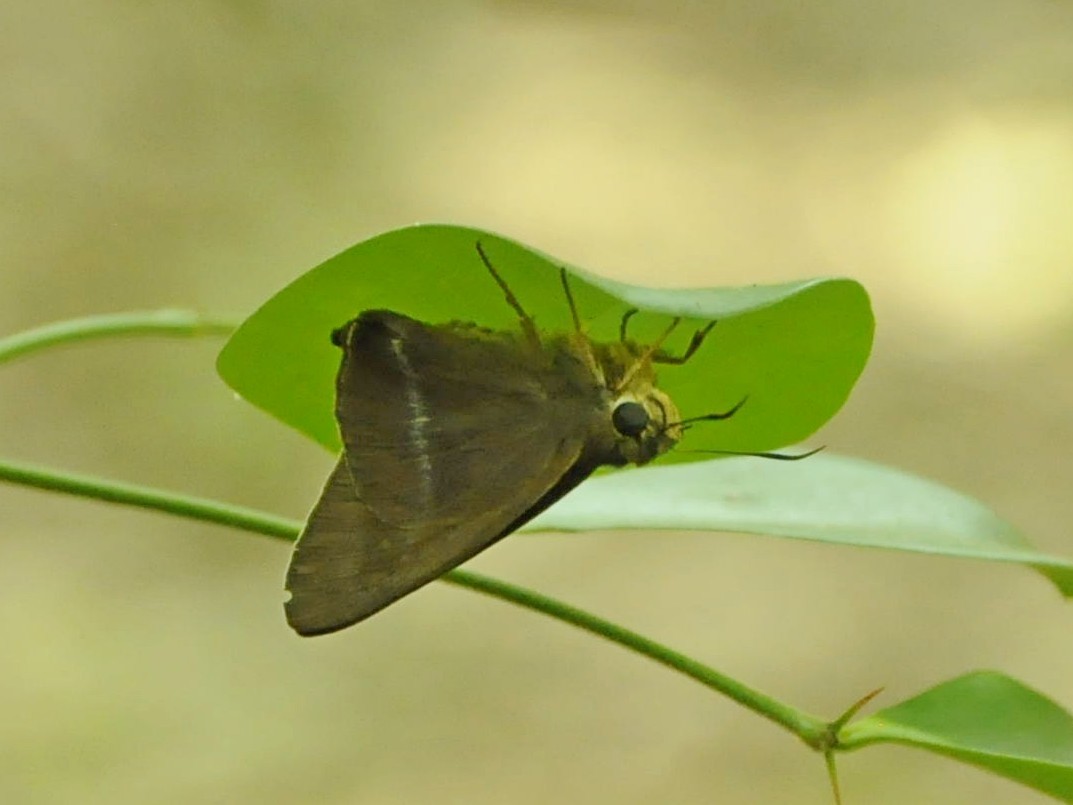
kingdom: Animalia
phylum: Arthropoda
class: Insecta
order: Lepidoptera
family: Hesperiidae
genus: Hasora
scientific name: Hasora chromus
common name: Common banded awl
